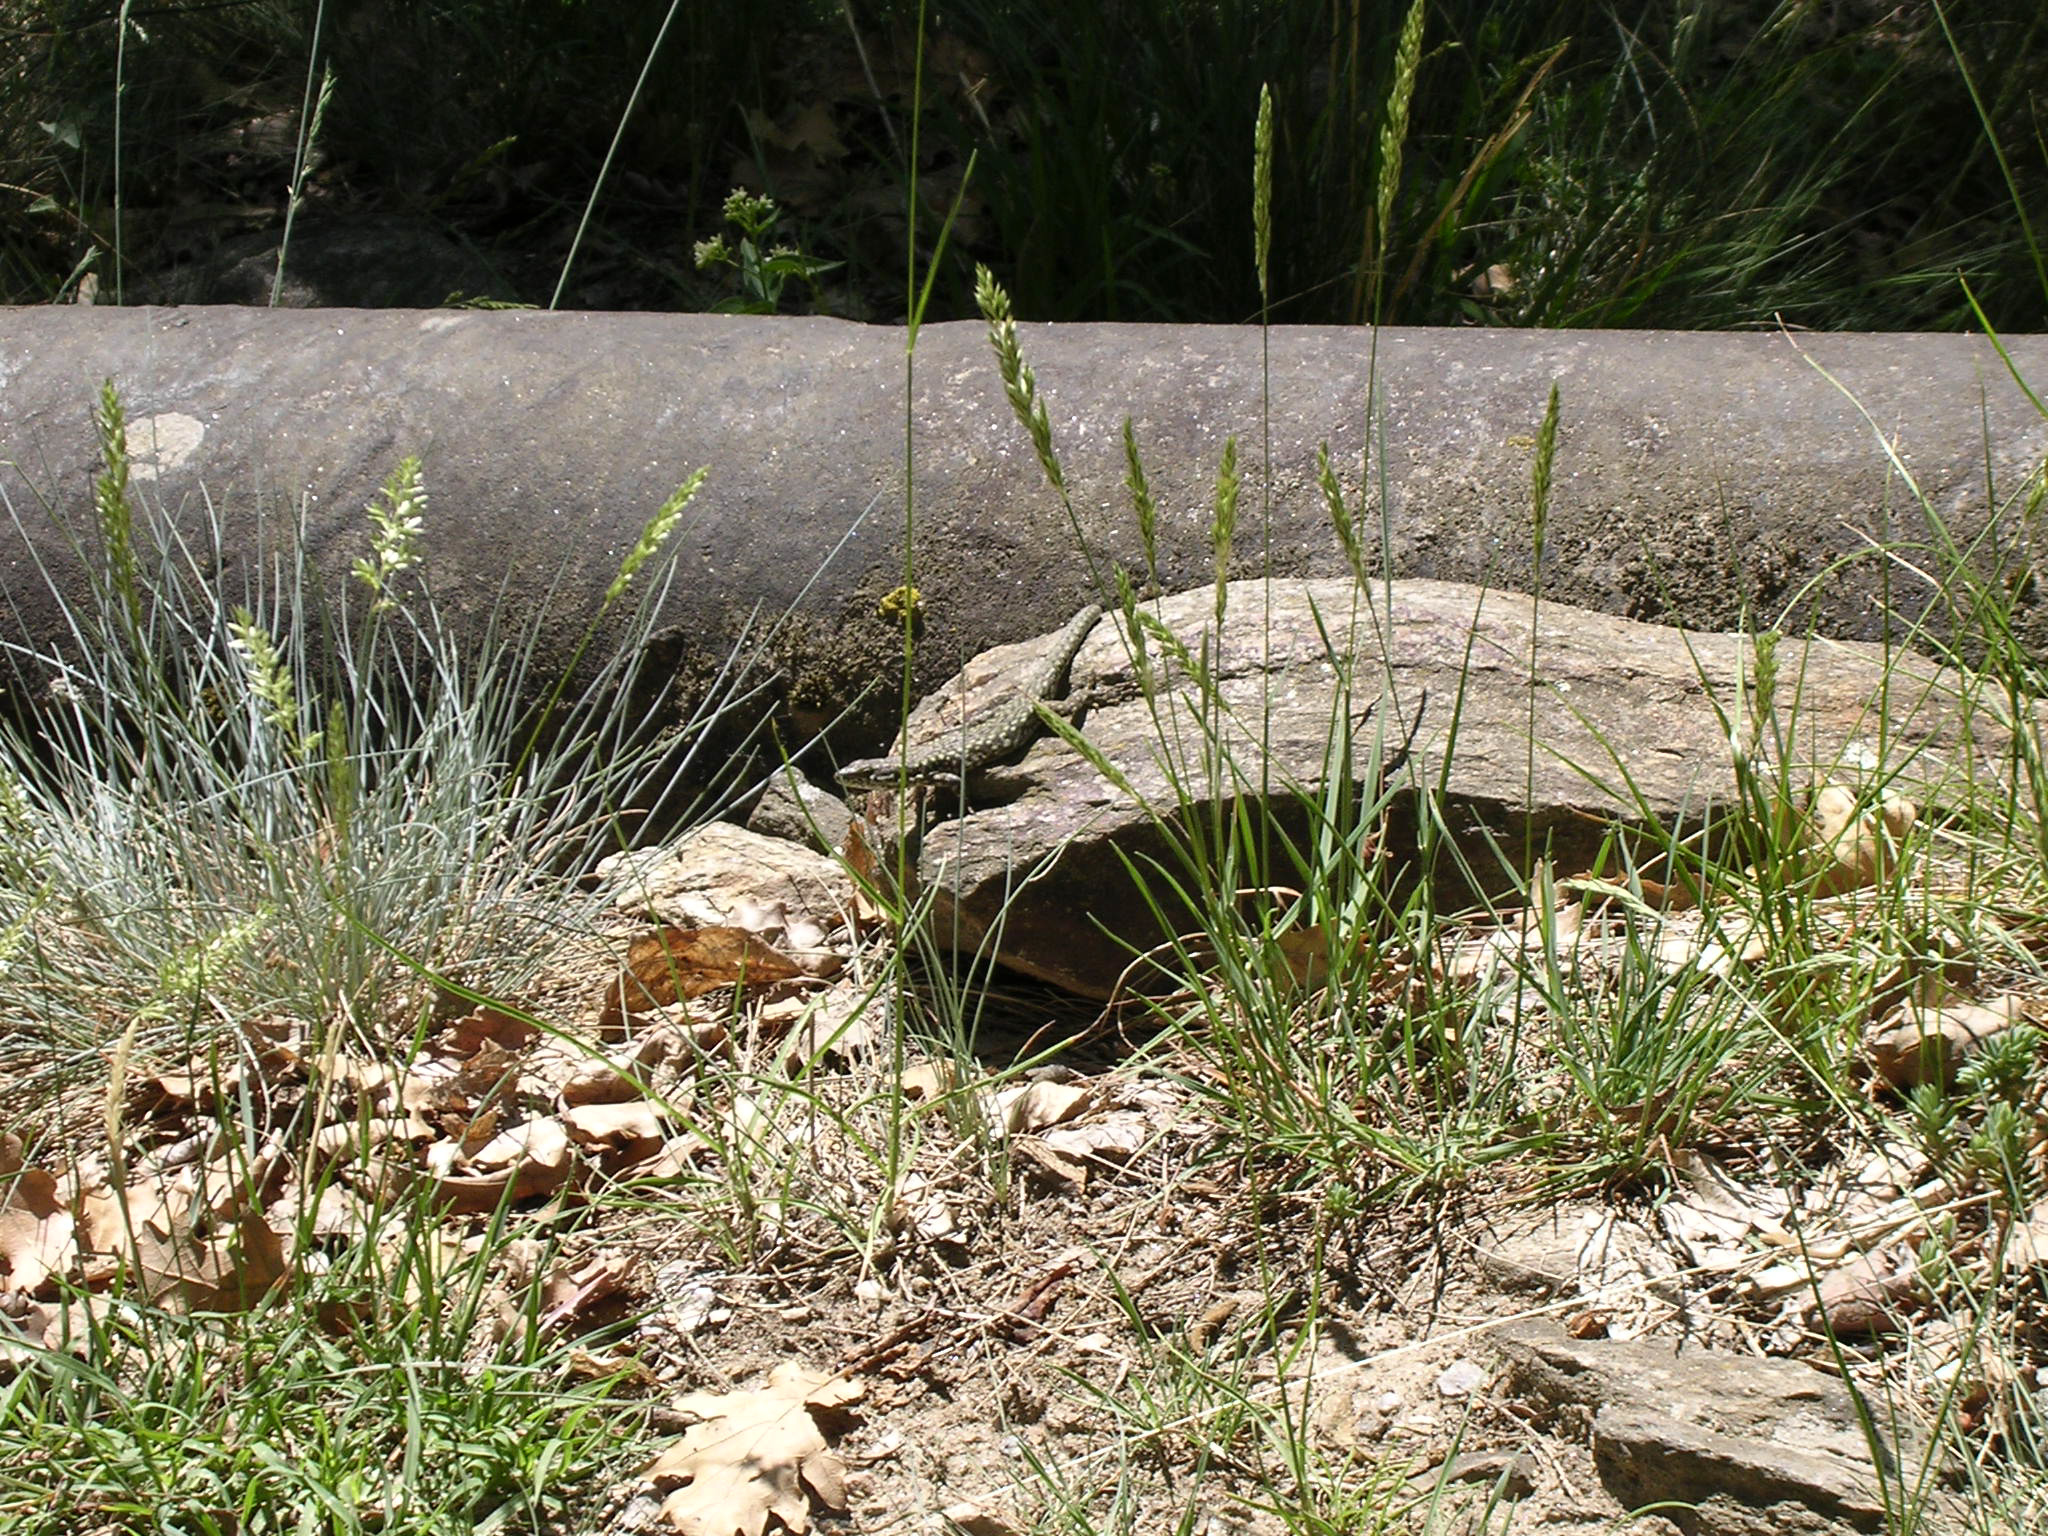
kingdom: Animalia
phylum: Chordata
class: Squamata
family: Lacertidae
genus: Podarcis
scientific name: Podarcis muralis
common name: Common wall lizard
